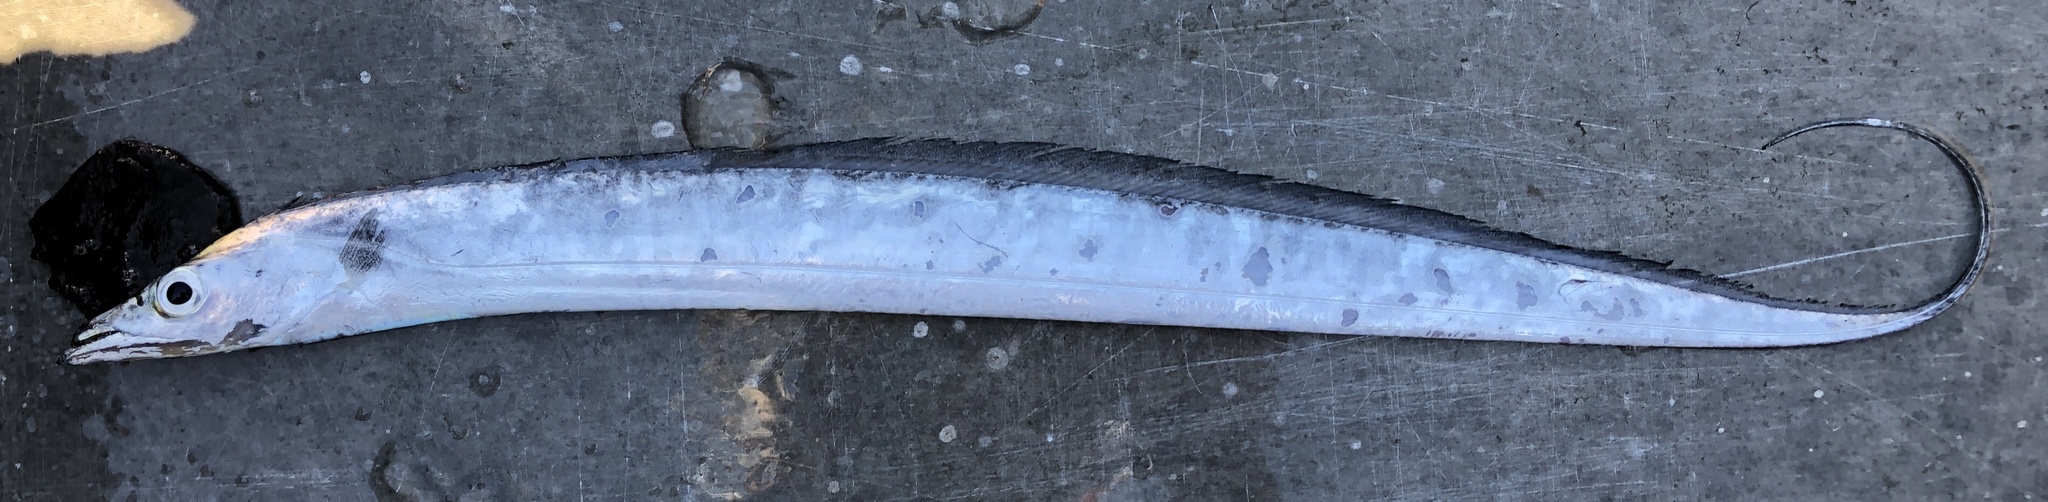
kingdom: Animalia
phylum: Chordata
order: Perciformes
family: Trichiuridae
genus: Trichiurus
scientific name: Trichiurus lepturus
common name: Largehead hairtail
